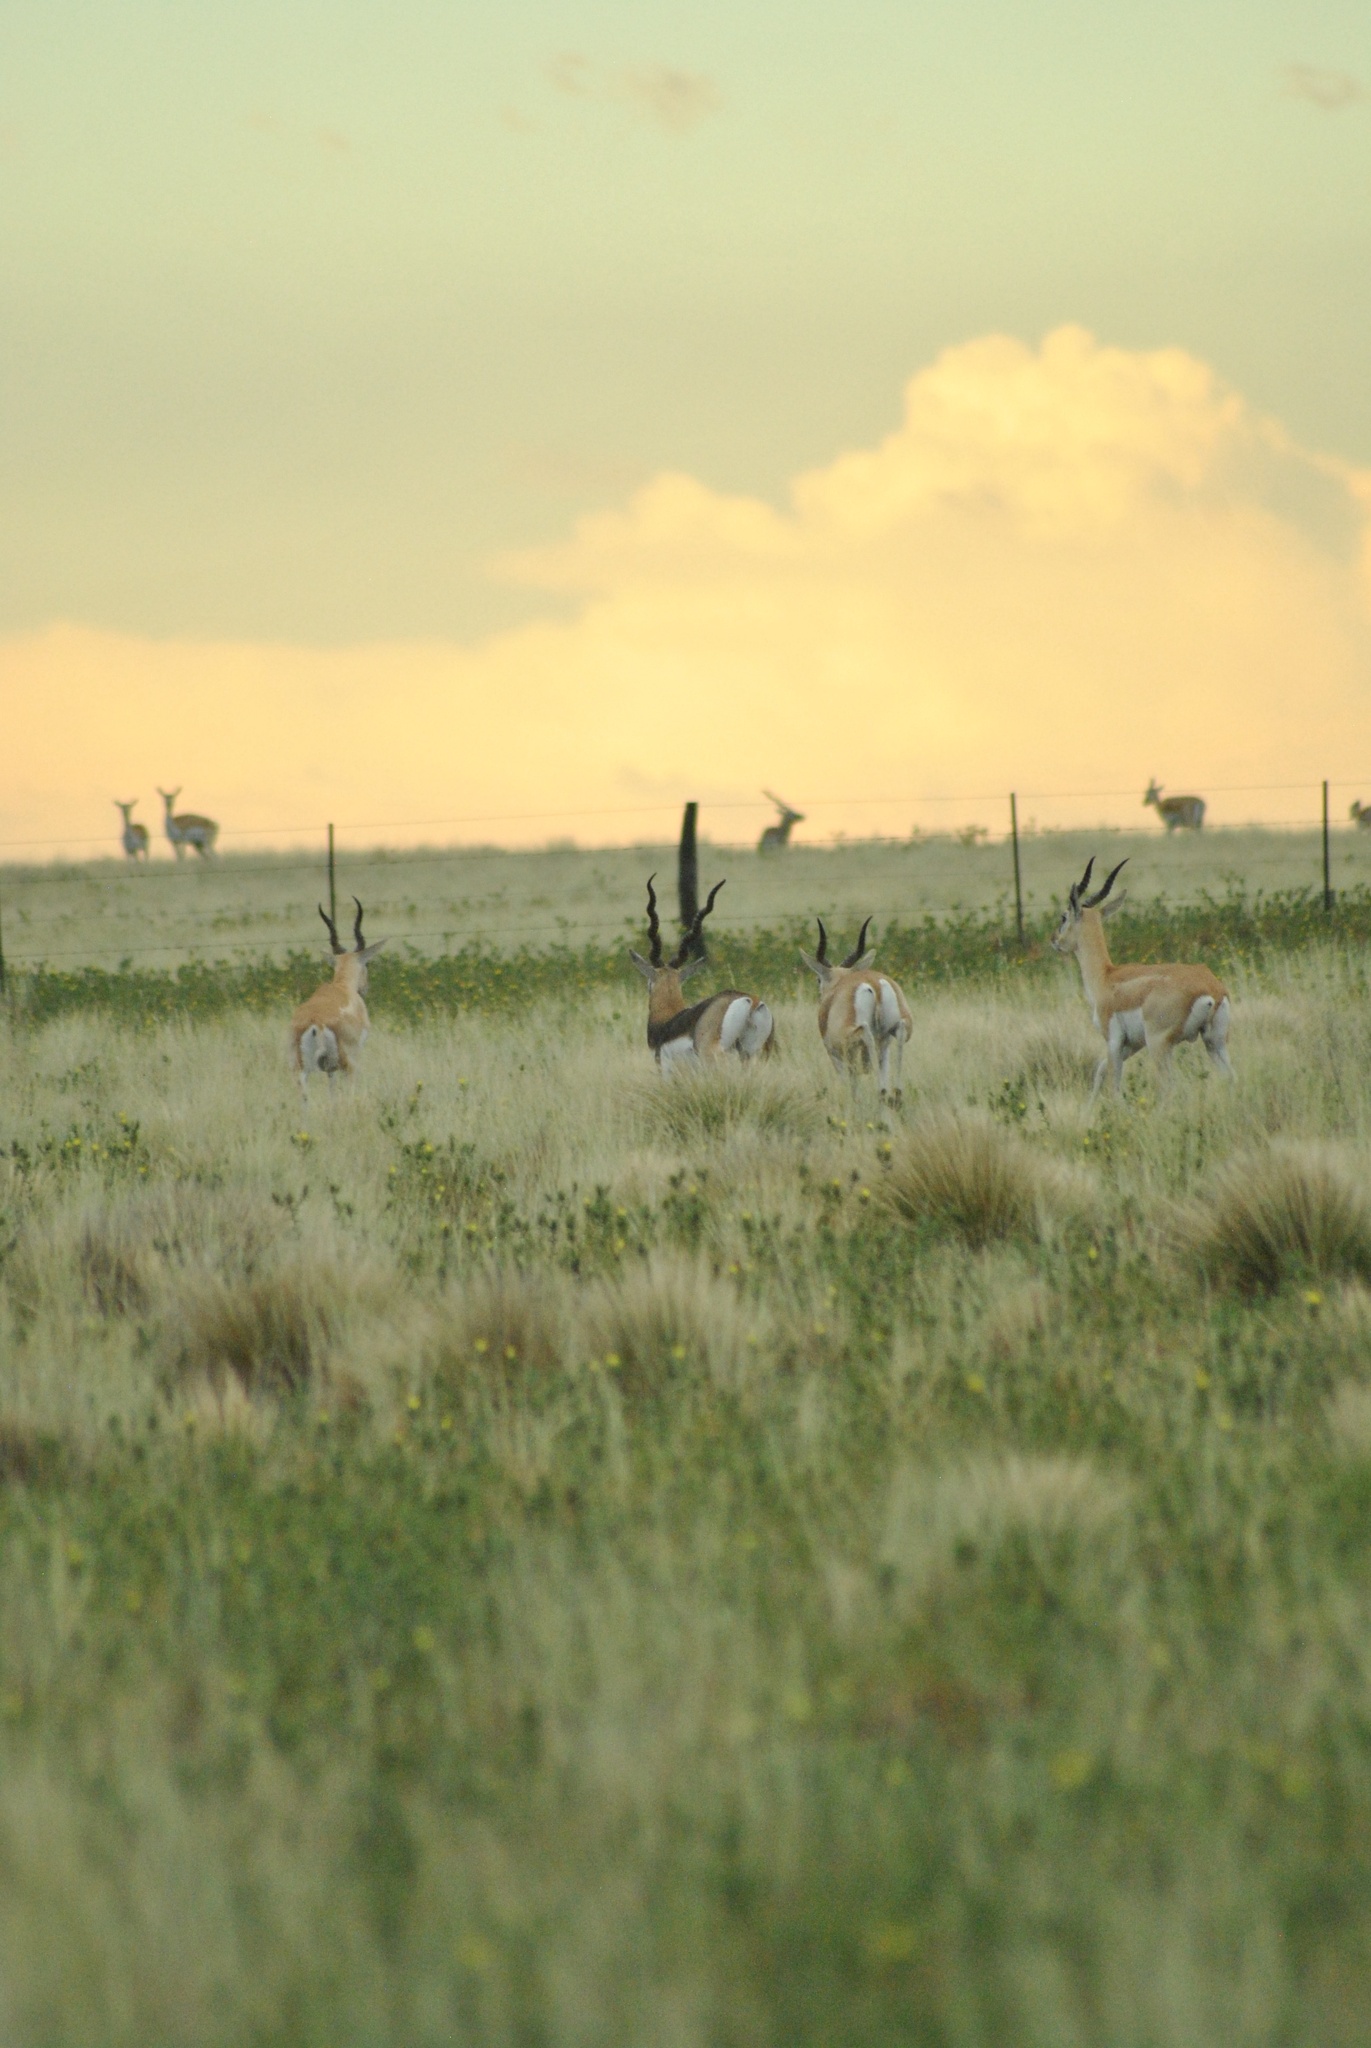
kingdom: Animalia
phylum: Chordata
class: Mammalia
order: Artiodactyla
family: Bovidae
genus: Antilope
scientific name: Antilope cervicapra
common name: Blackbuck
